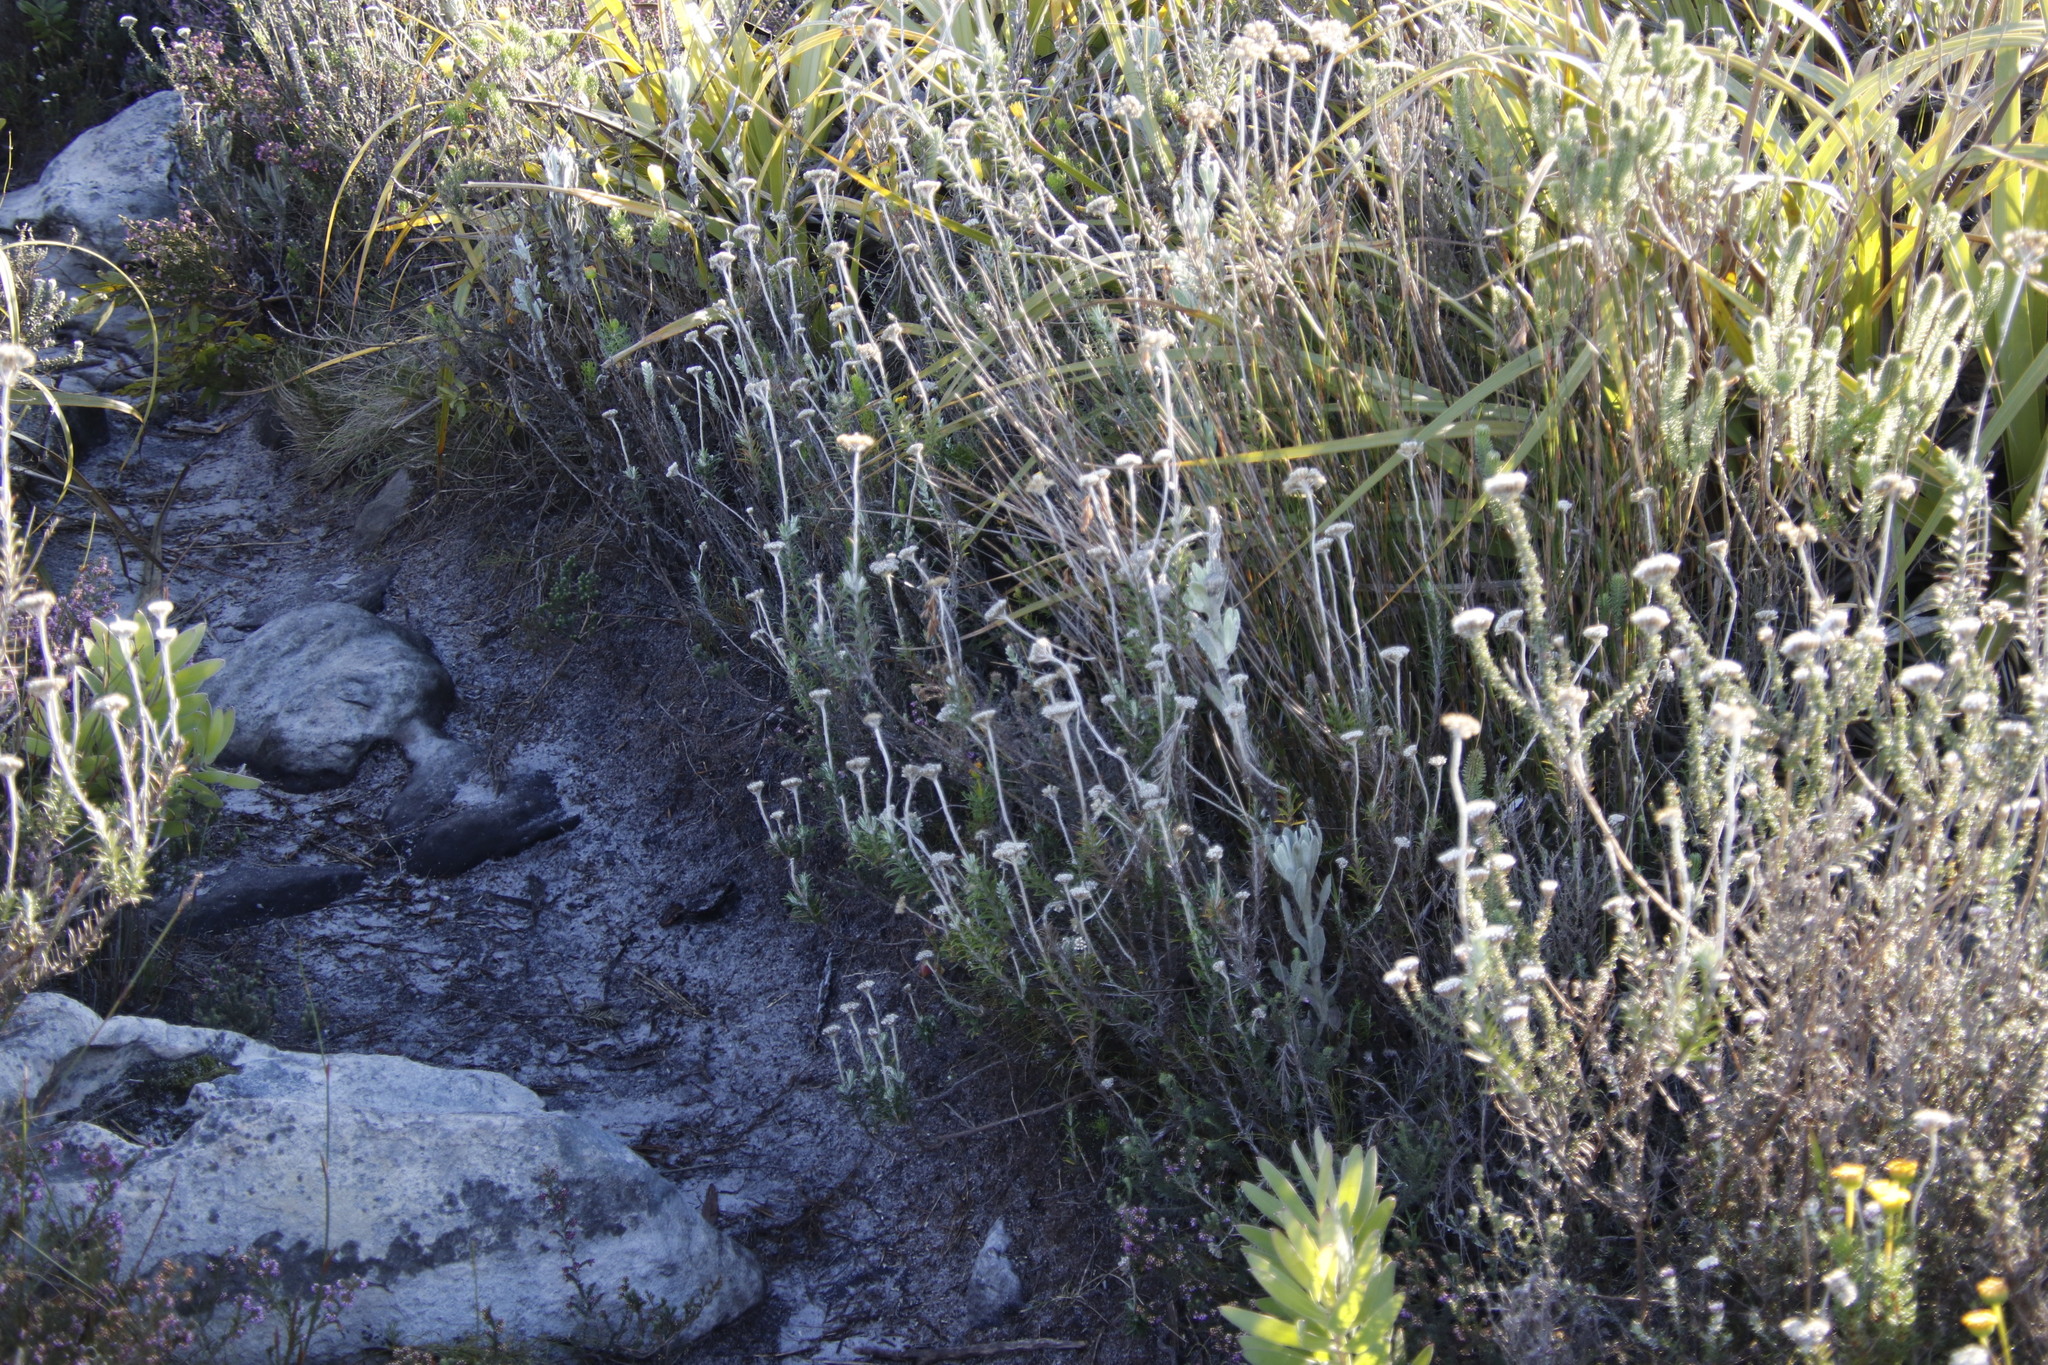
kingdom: Plantae
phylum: Tracheophyta
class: Magnoliopsida
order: Asterales
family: Asteraceae
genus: Anaxeton
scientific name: Anaxeton arborescens
